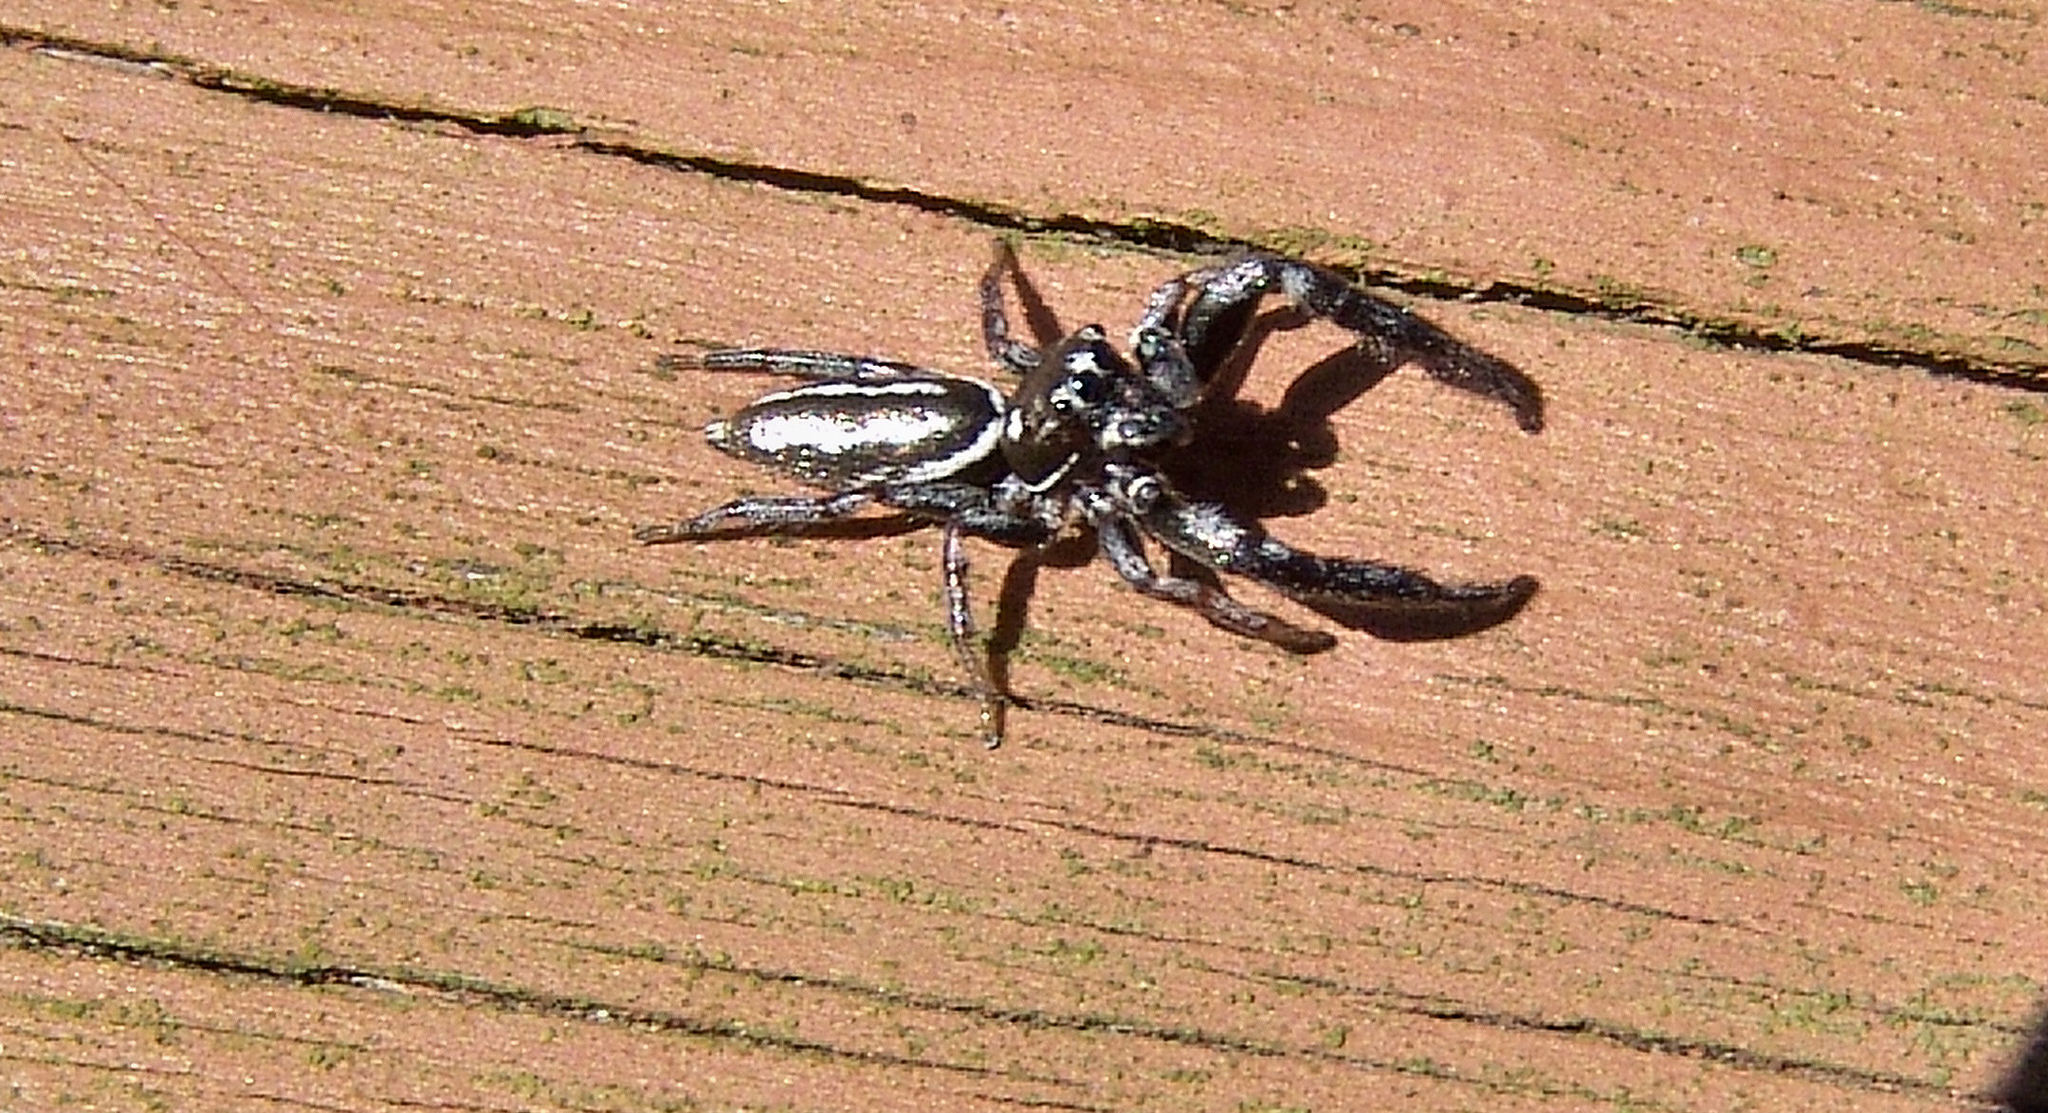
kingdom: Animalia
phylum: Arthropoda
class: Arachnida
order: Araneae
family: Salticidae
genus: Marpissa
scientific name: Marpissa formosa
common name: Short-bellied slender jumping spider
